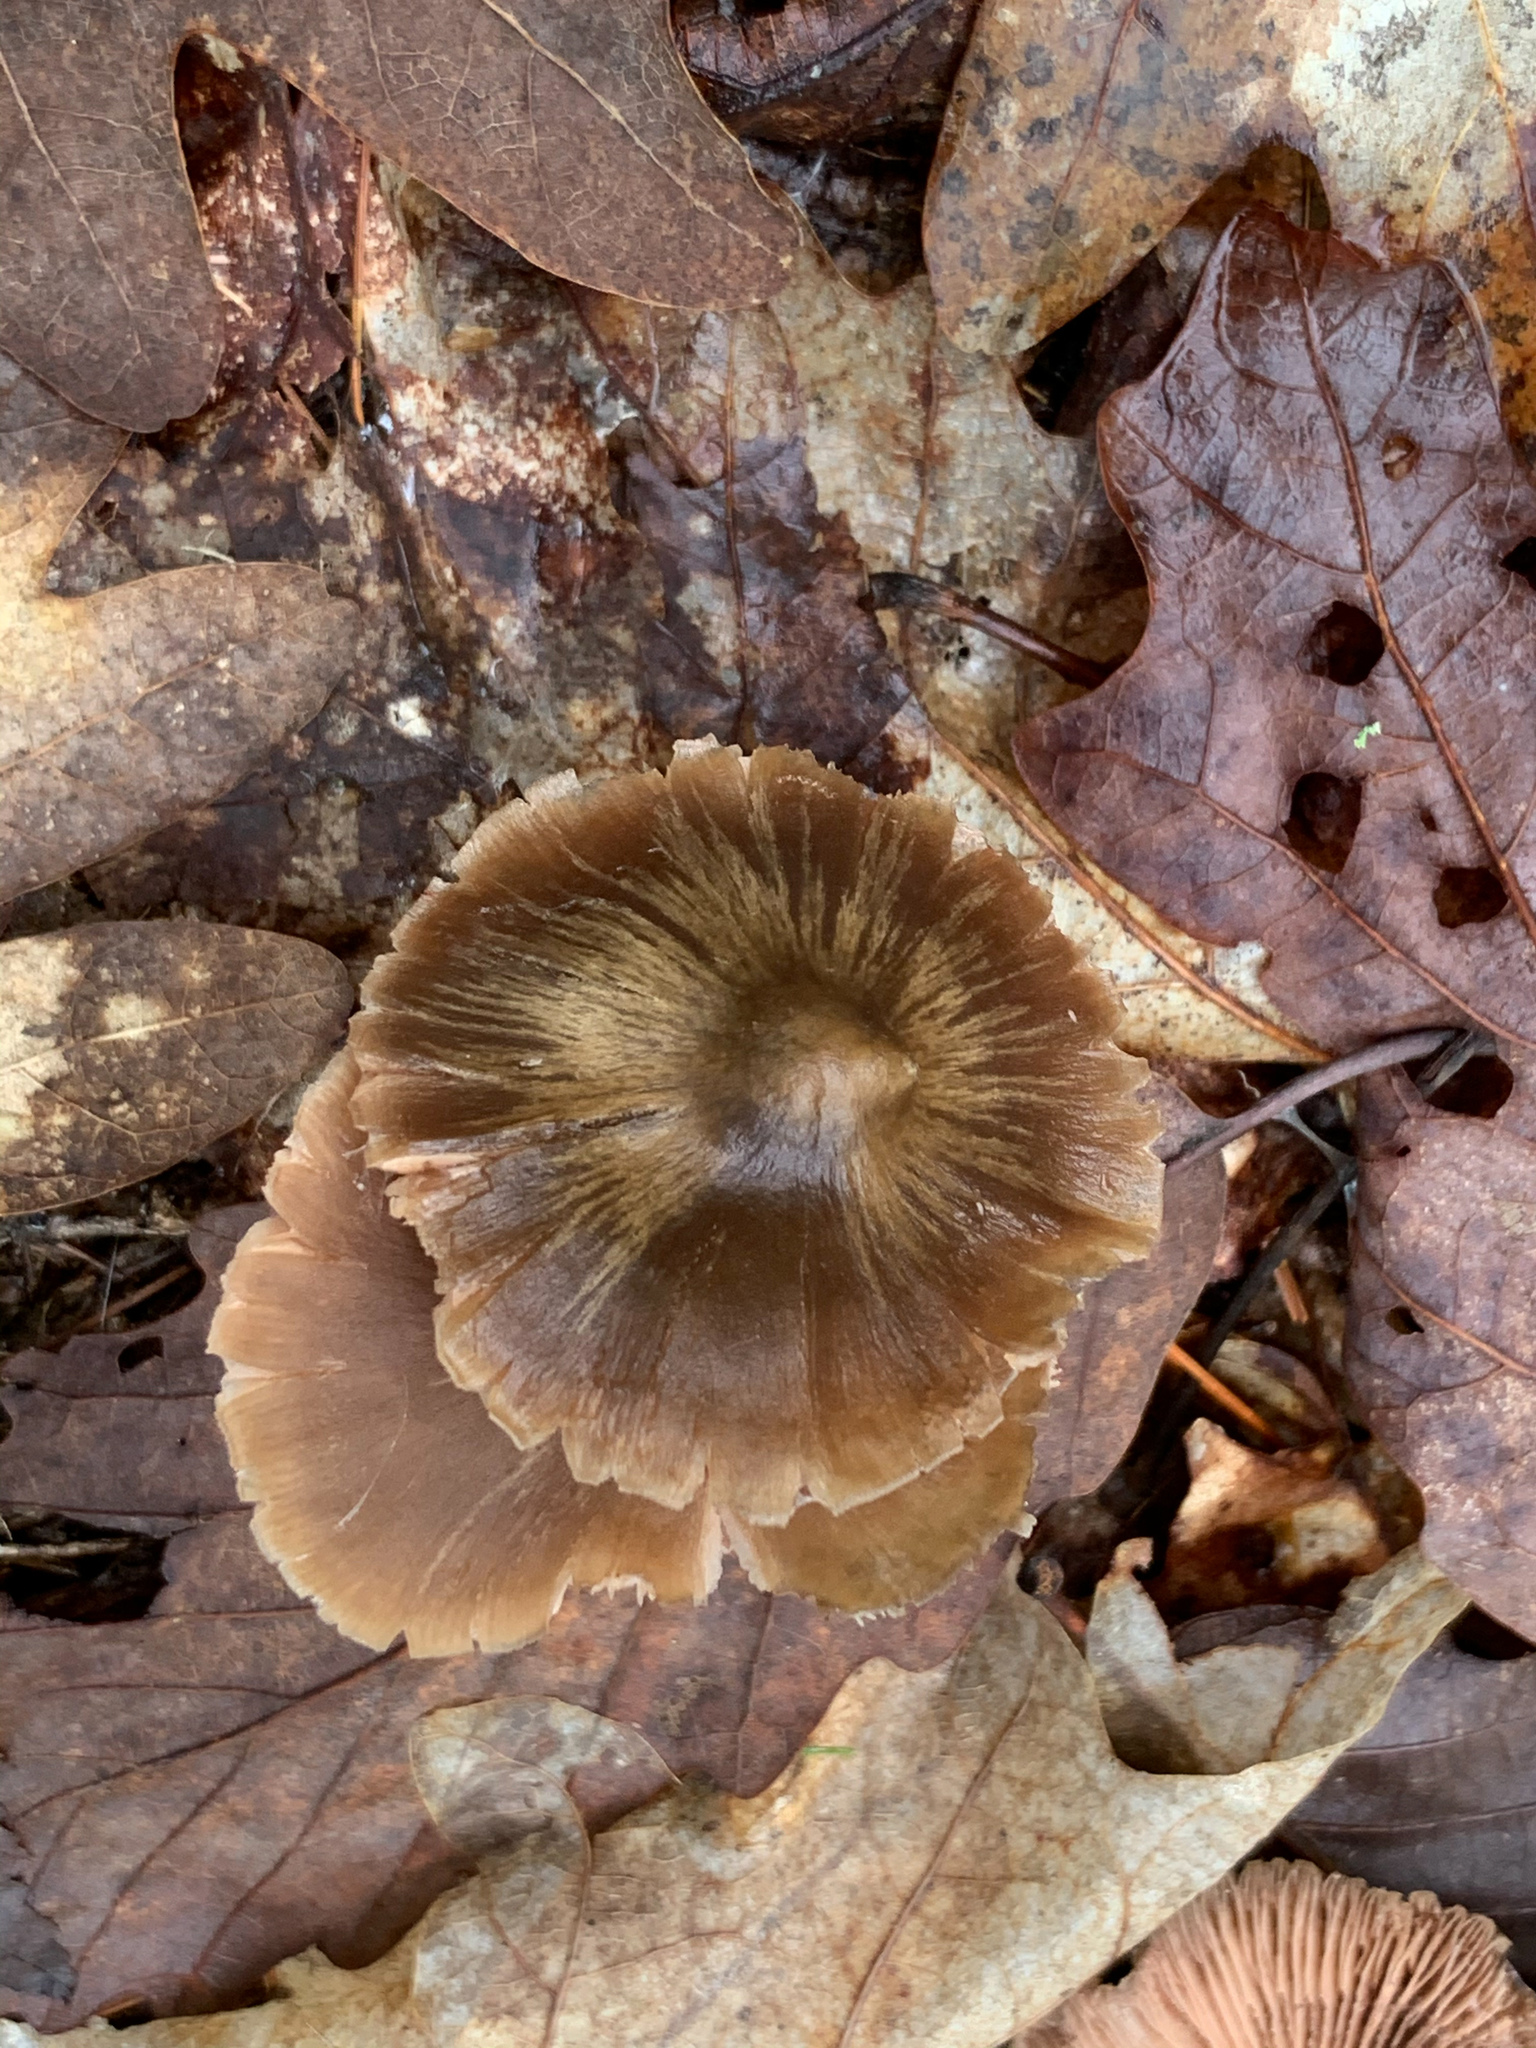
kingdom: Fungi
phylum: Basidiomycota
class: Agaricomycetes
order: Agaricales
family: Entolomataceae
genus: Entoloma
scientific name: Entoloma vernum
